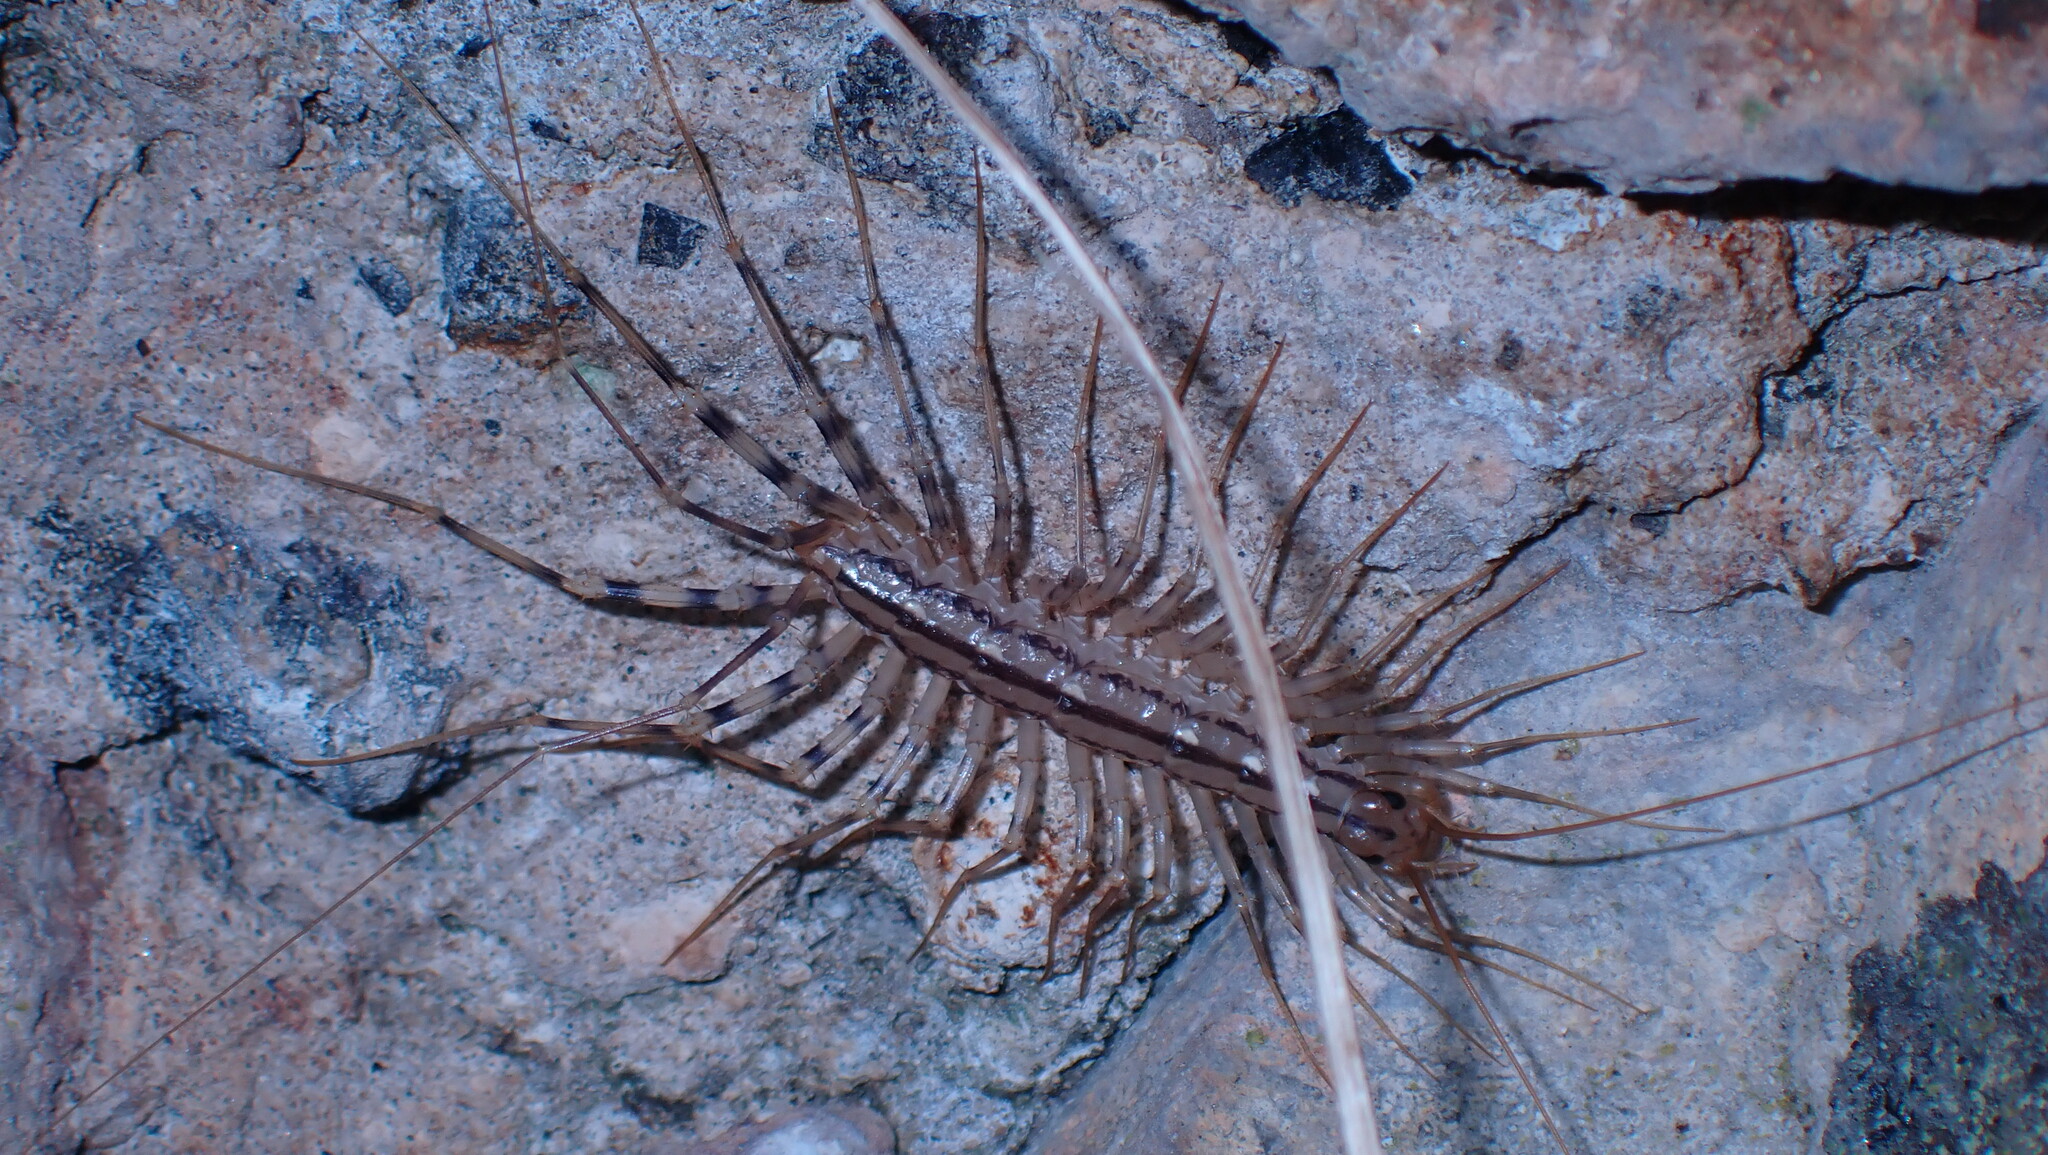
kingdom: Animalia
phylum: Arthropoda
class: Chilopoda
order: Scutigeromorpha
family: Scutigeridae
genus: Scutigera
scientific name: Scutigera coleoptrata
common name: House centipede
